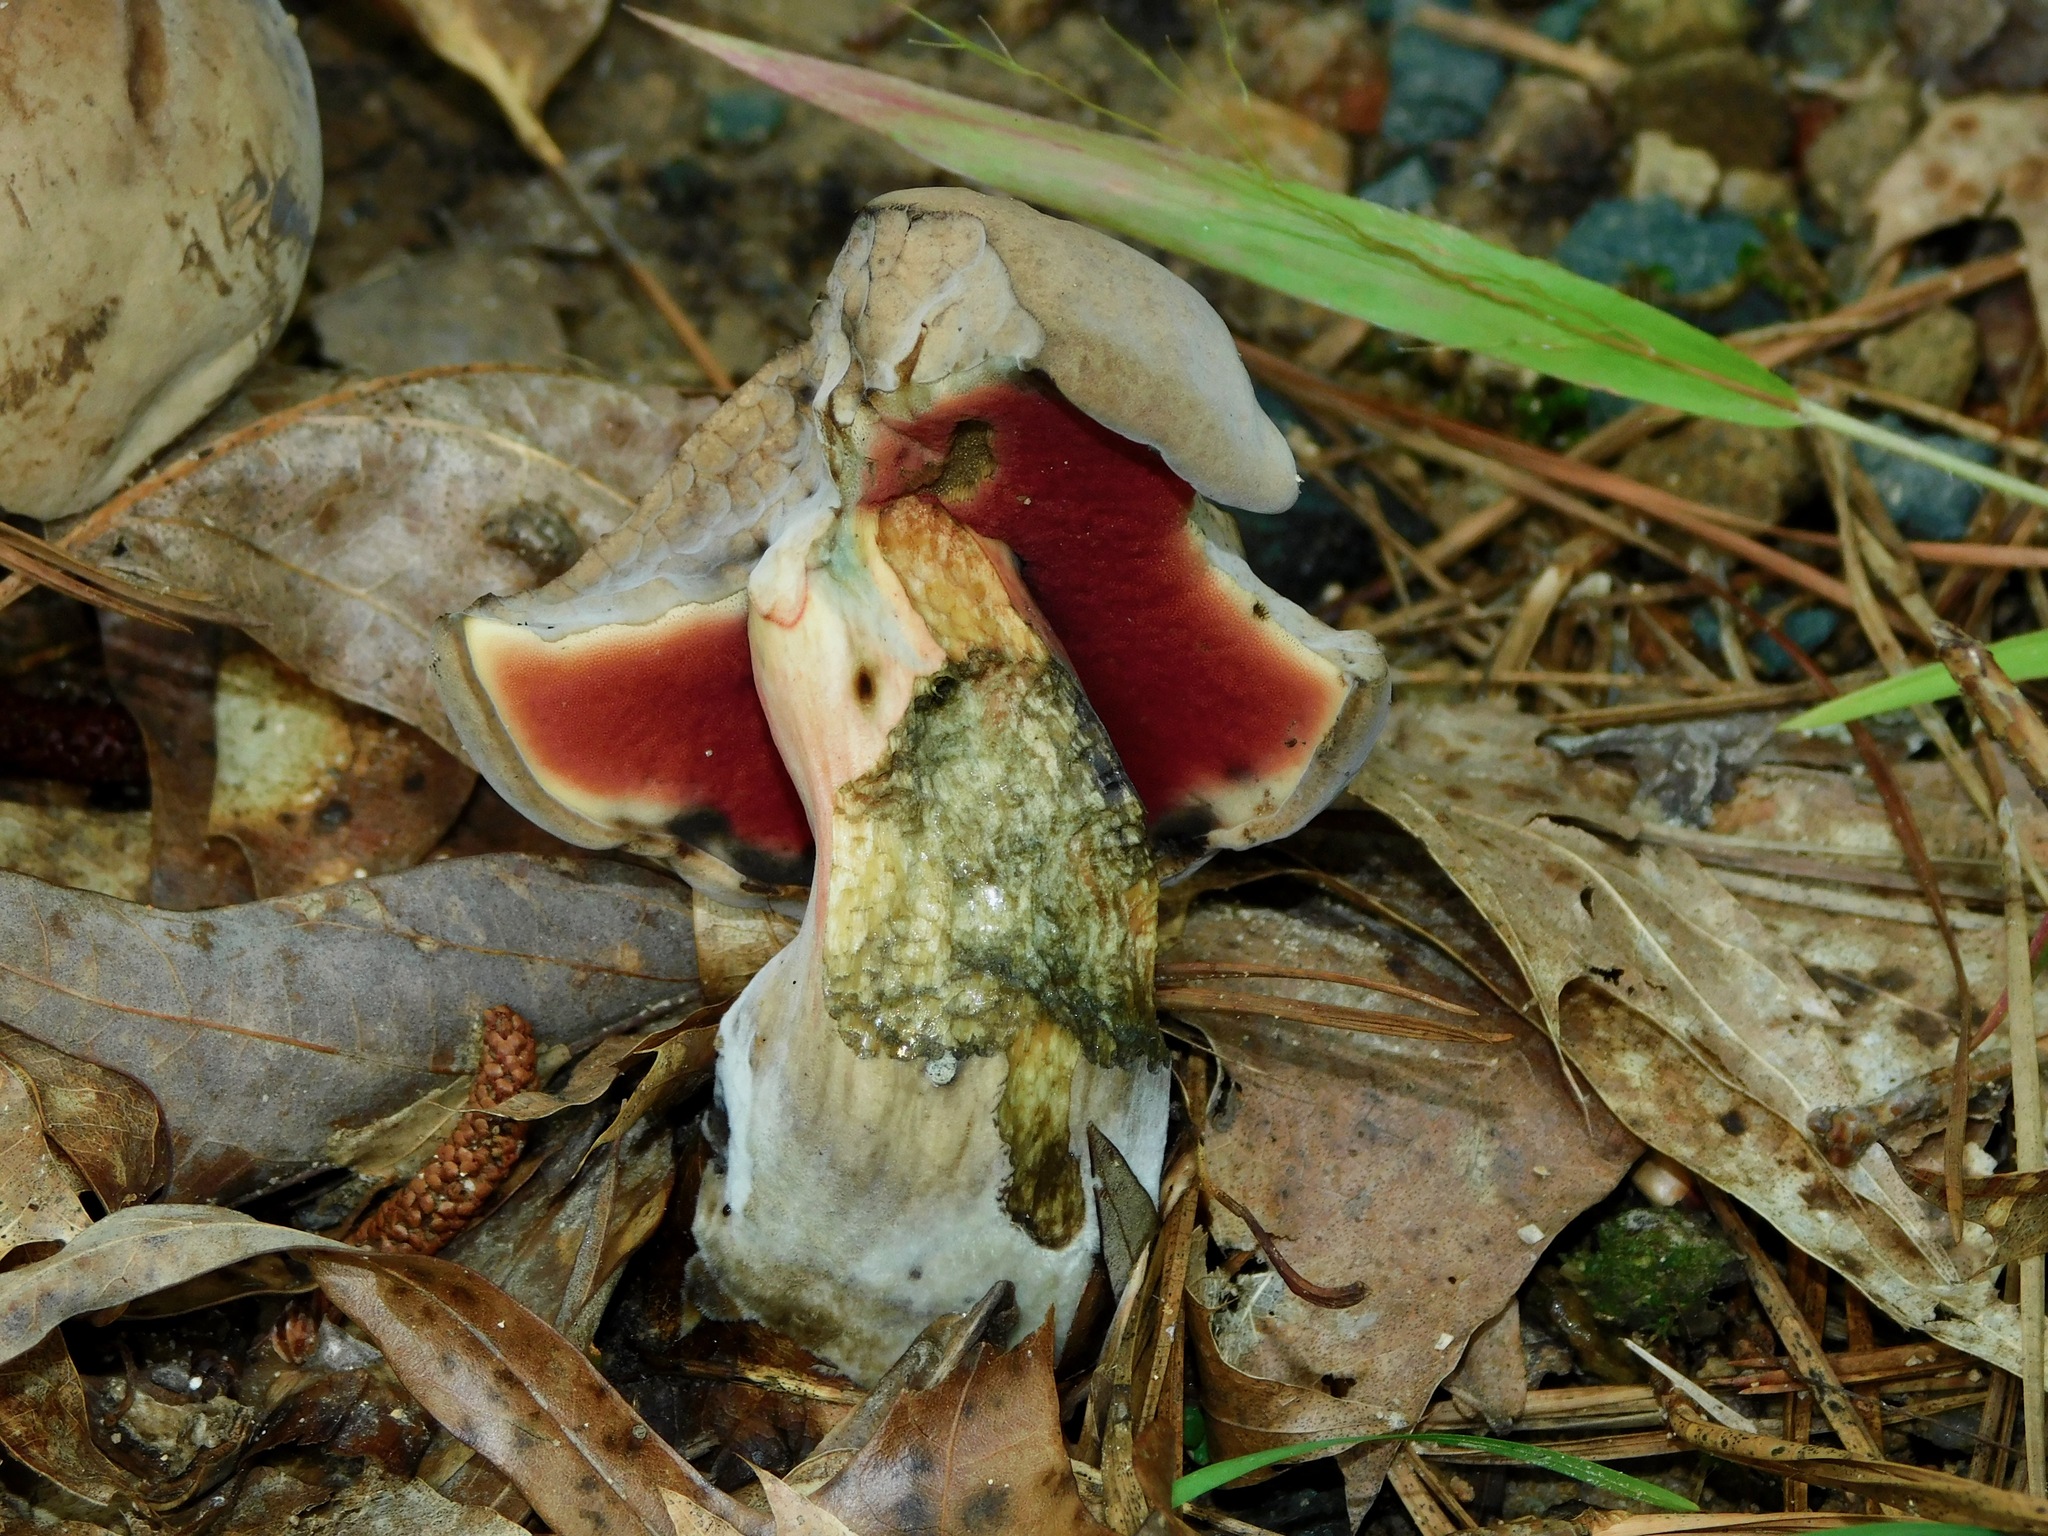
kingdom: Fungi
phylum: Basidiomycota
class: Agaricomycetes
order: Boletales
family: Boletaceae
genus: Caloboletus
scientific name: Caloboletus firmus
